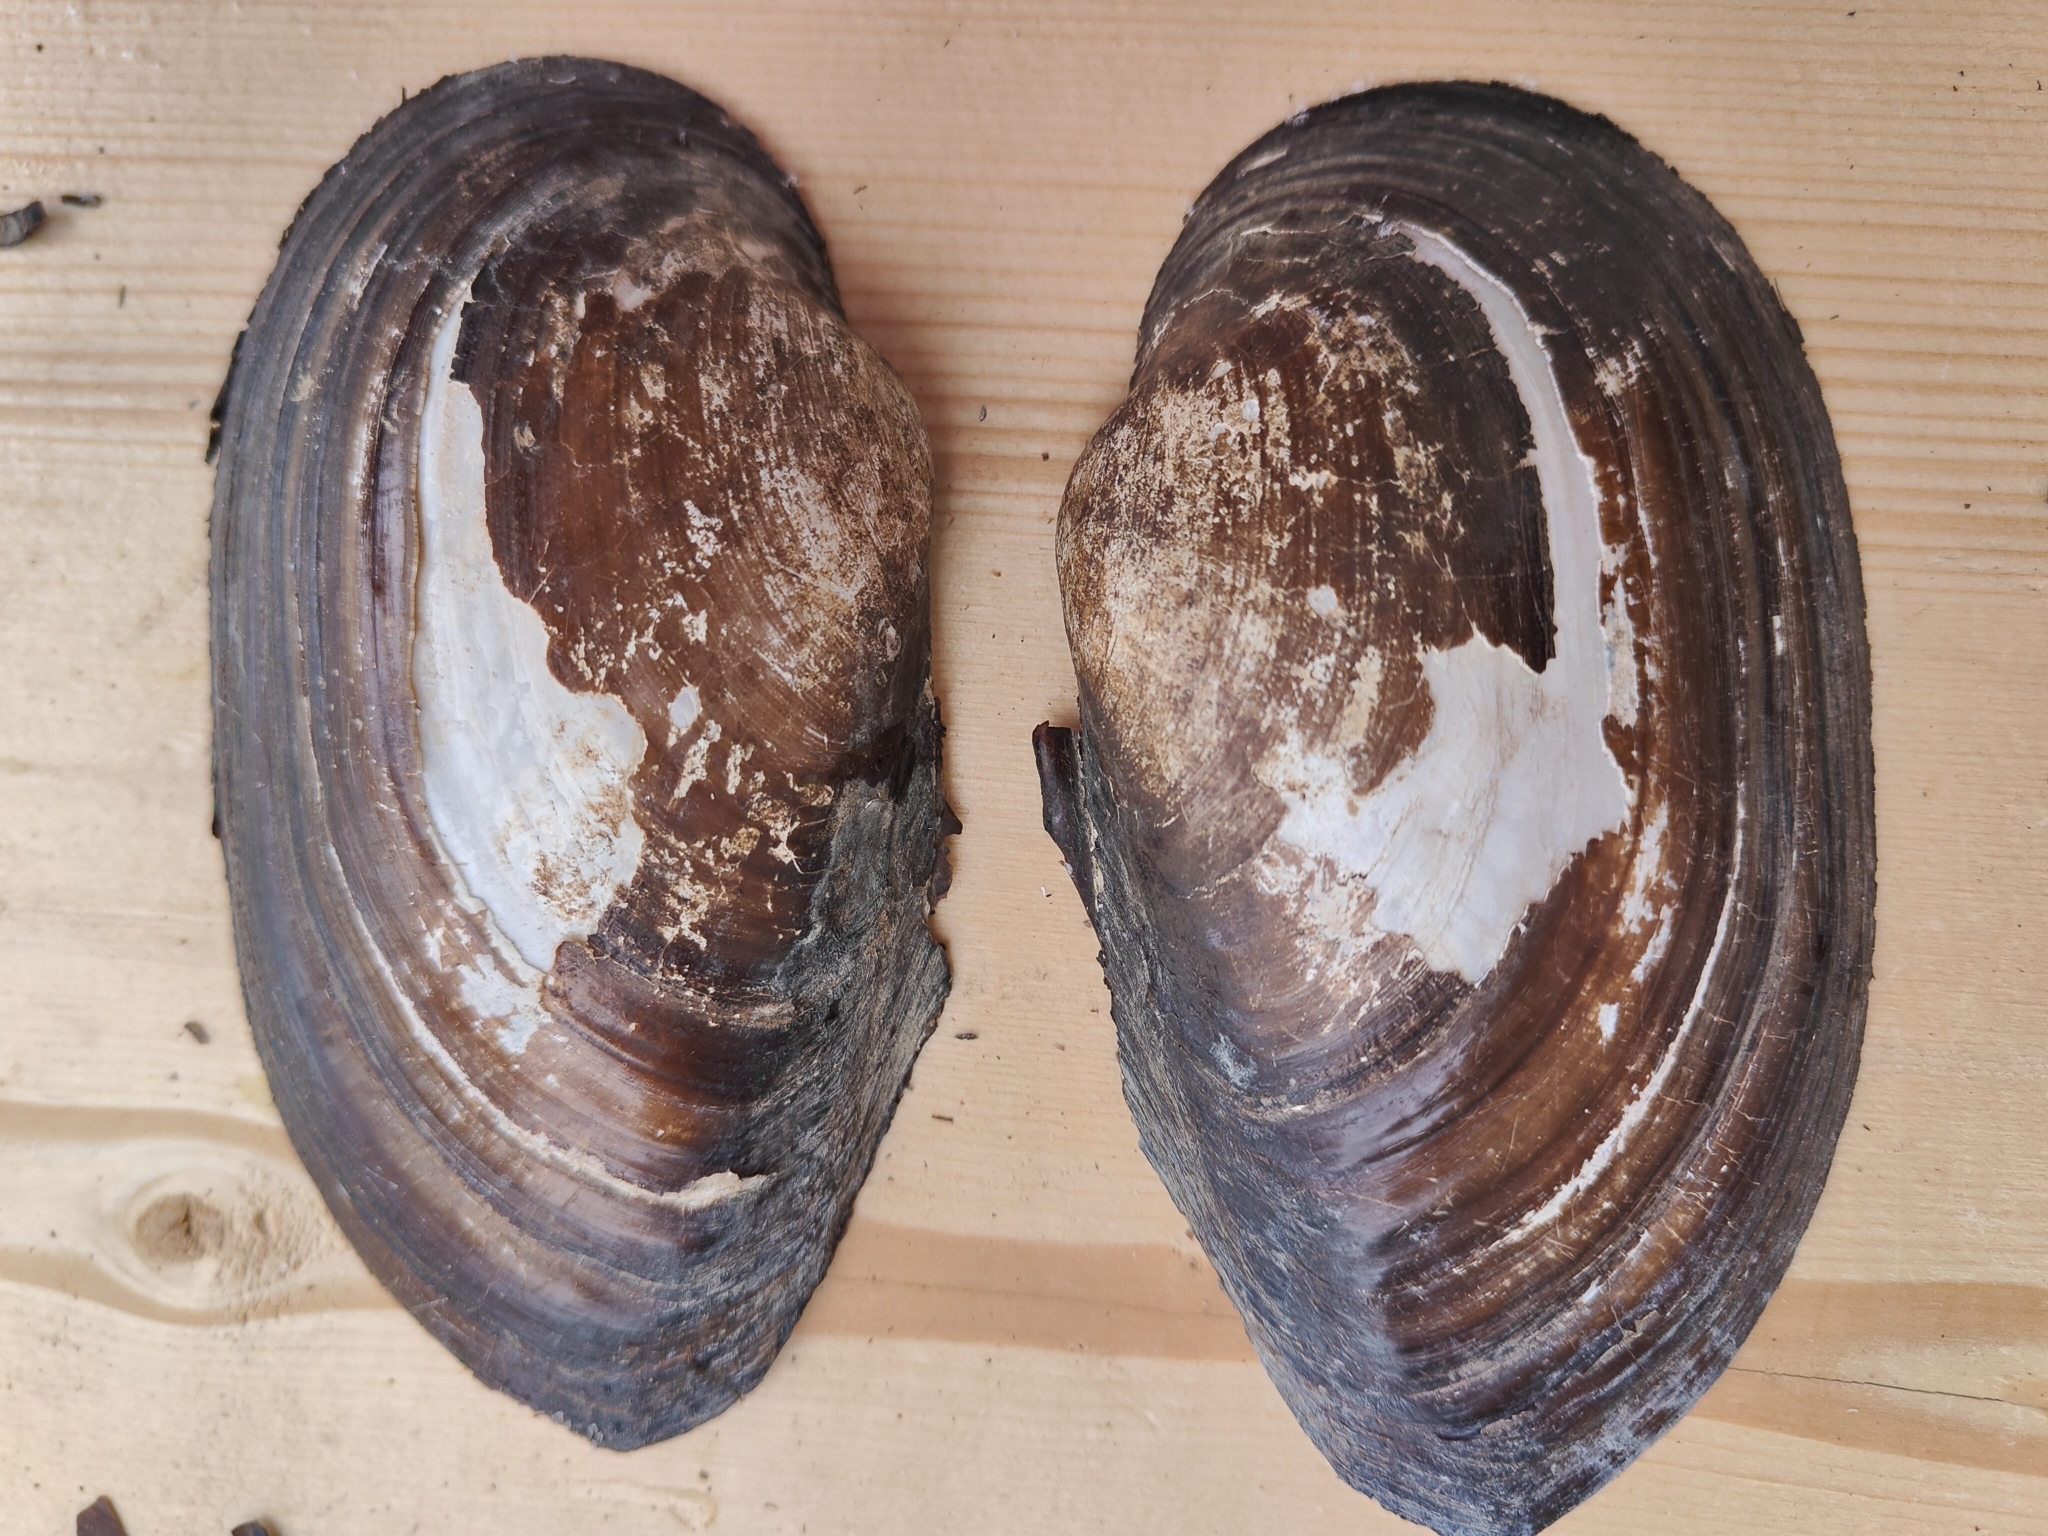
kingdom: Animalia
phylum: Mollusca
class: Bivalvia
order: Unionida
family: Unionidae
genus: Pyganodon
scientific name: Pyganodon grandis
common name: Giant floater
